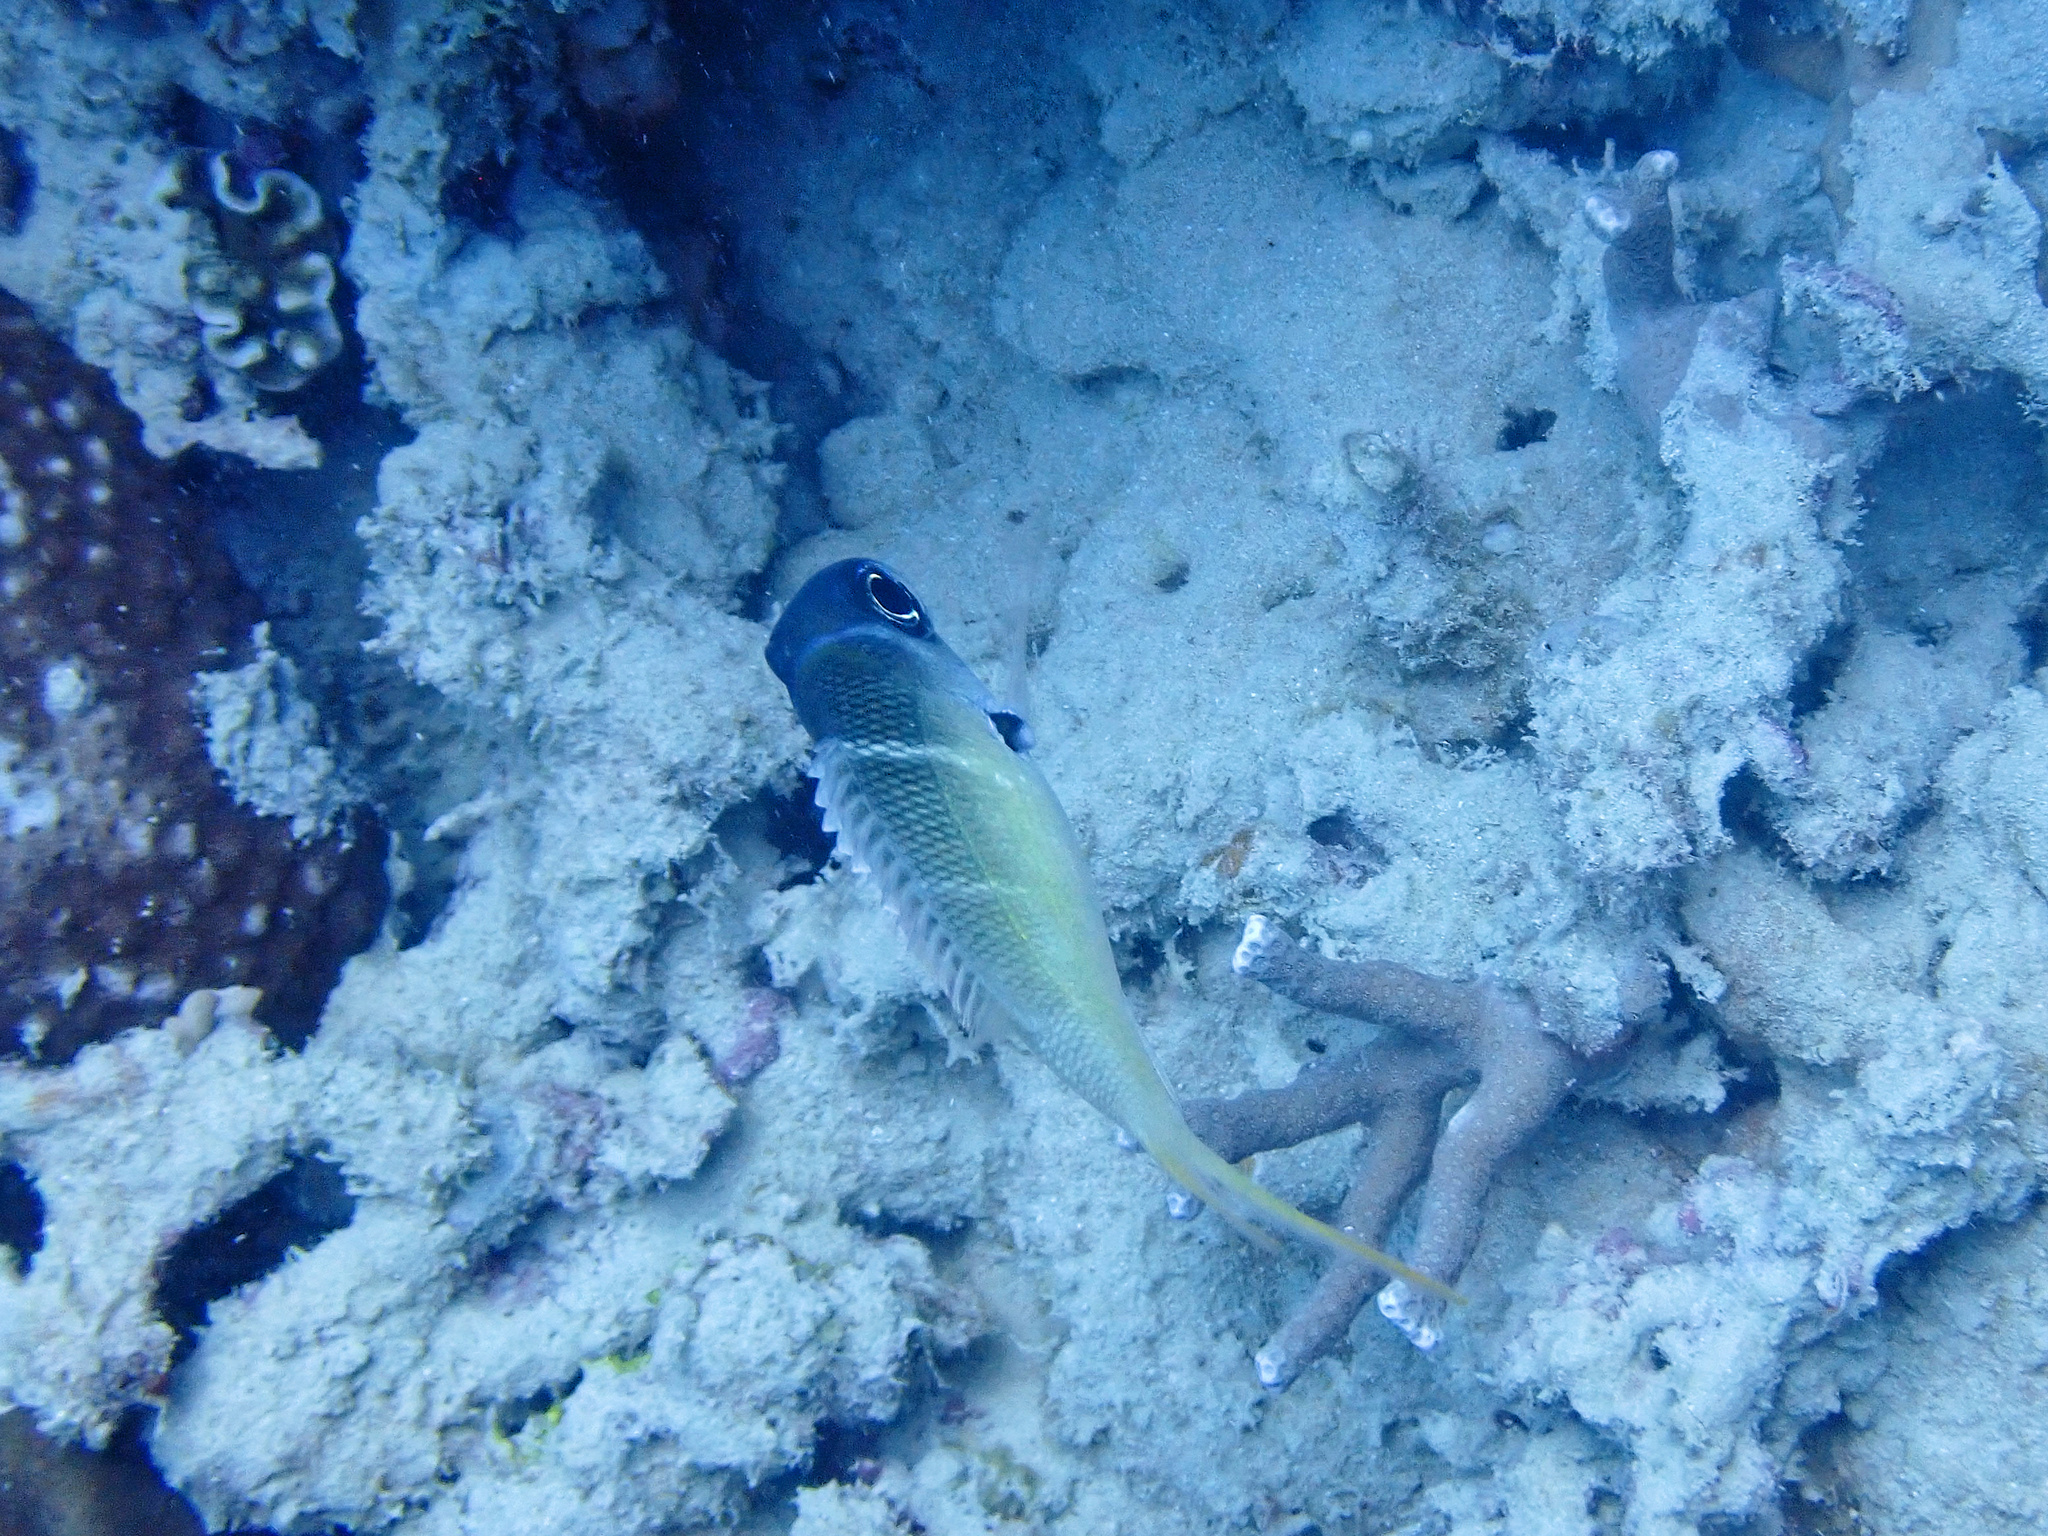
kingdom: Animalia
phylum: Chordata
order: Perciformes
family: Lethrinidae
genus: Monotaxis
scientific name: Monotaxis heterodon
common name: Redfin emperor
